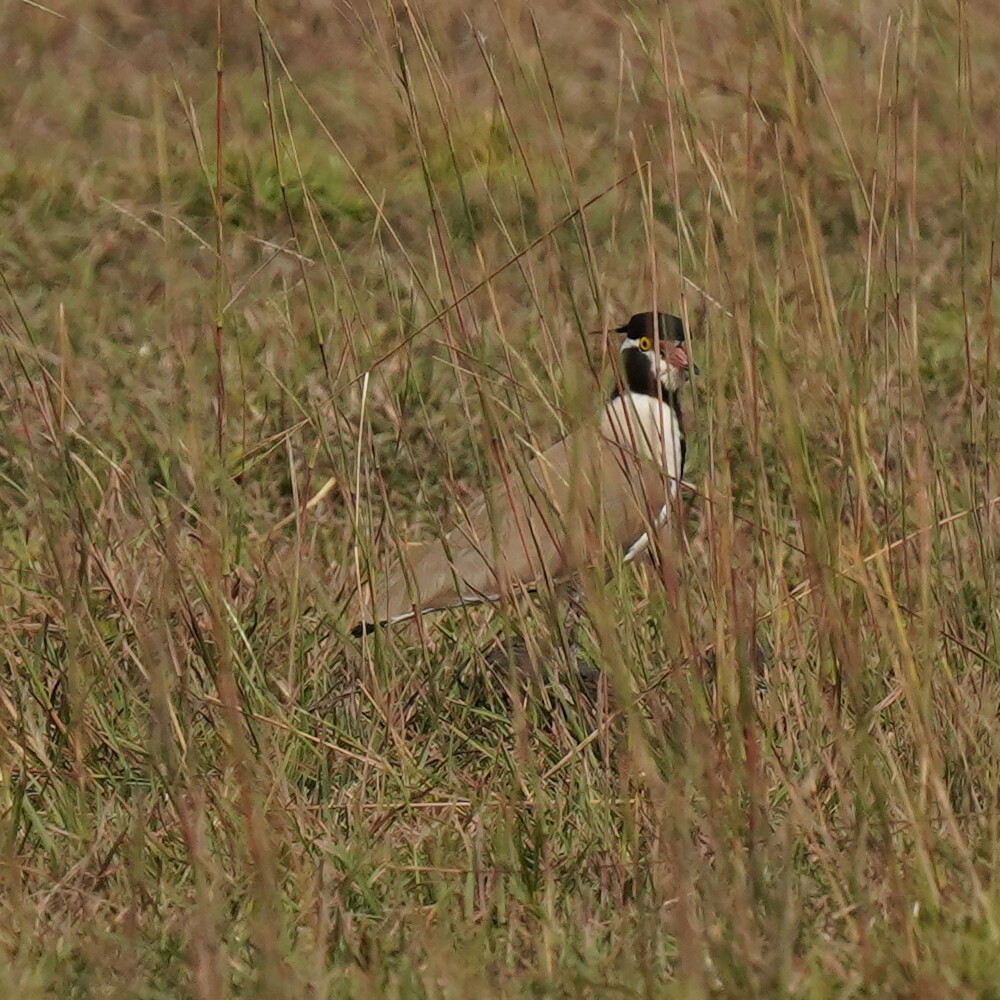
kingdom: Animalia
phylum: Chordata
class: Aves
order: Charadriiformes
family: Charadriidae
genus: Vanellus
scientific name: Vanellus tectus
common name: Black-headed lapwing
